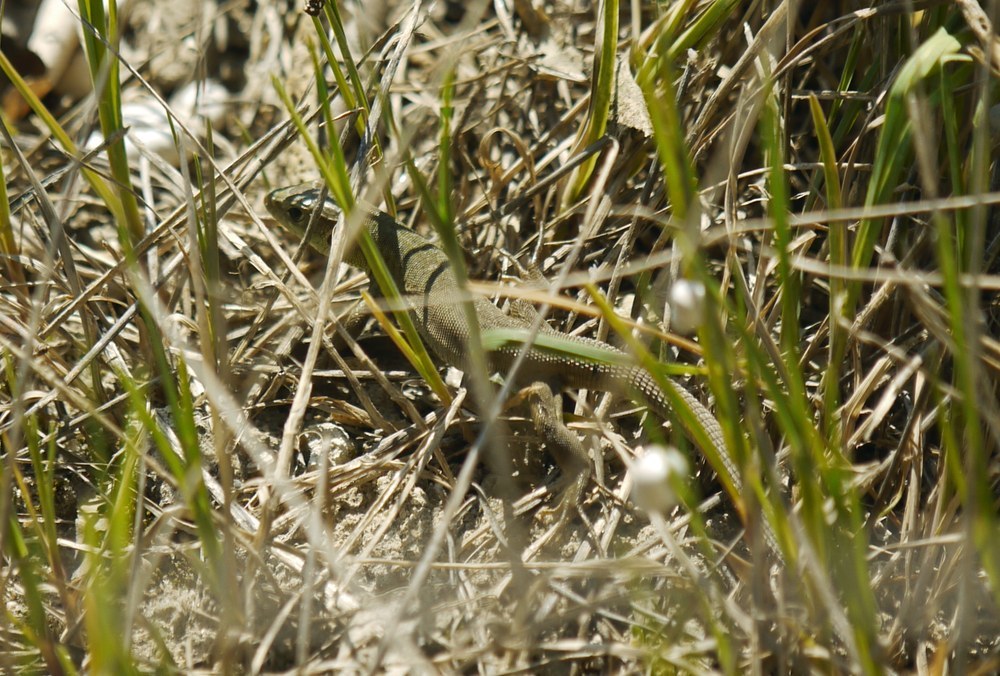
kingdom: Animalia
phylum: Chordata
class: Squamata
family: Lacertidae
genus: Lacerta
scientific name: Lacerta viridis
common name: European green lizard
